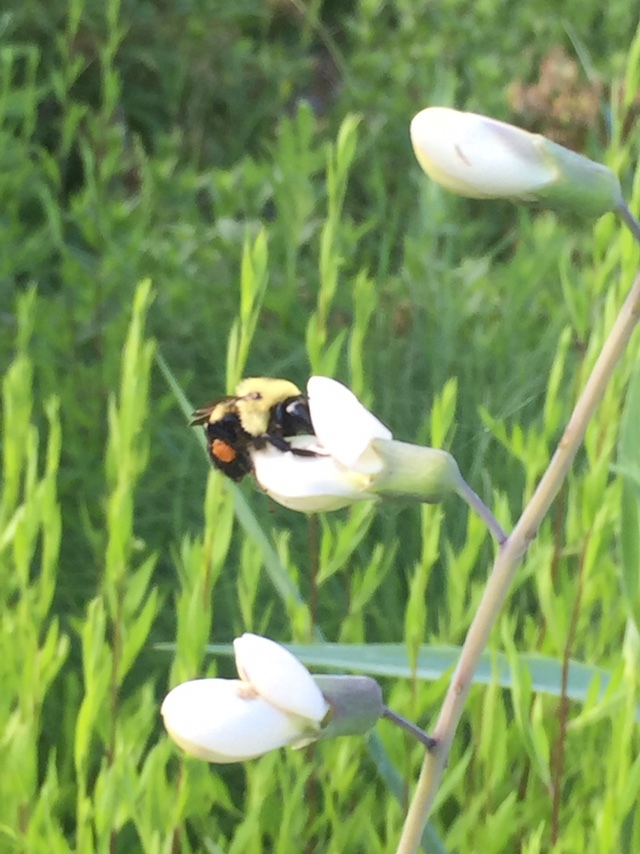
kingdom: Animalia
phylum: Arthropoda
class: Insecta
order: Hymenoptera
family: Apidae
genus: Bombus
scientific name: Bombus griseocollis
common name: Brown-belted bumble bee
